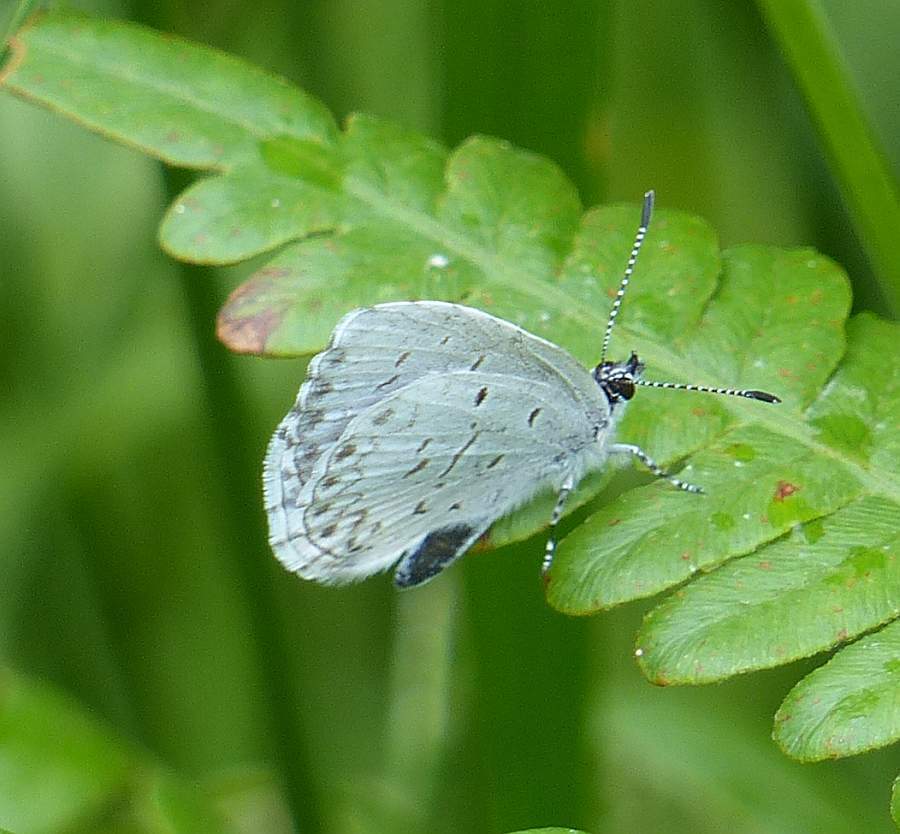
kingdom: Animalia
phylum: Arthropoda
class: Insecta
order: Lepidoptera
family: Lycaenidae
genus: Celastrina
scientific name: Celastrina lucia
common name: Lucia azure
